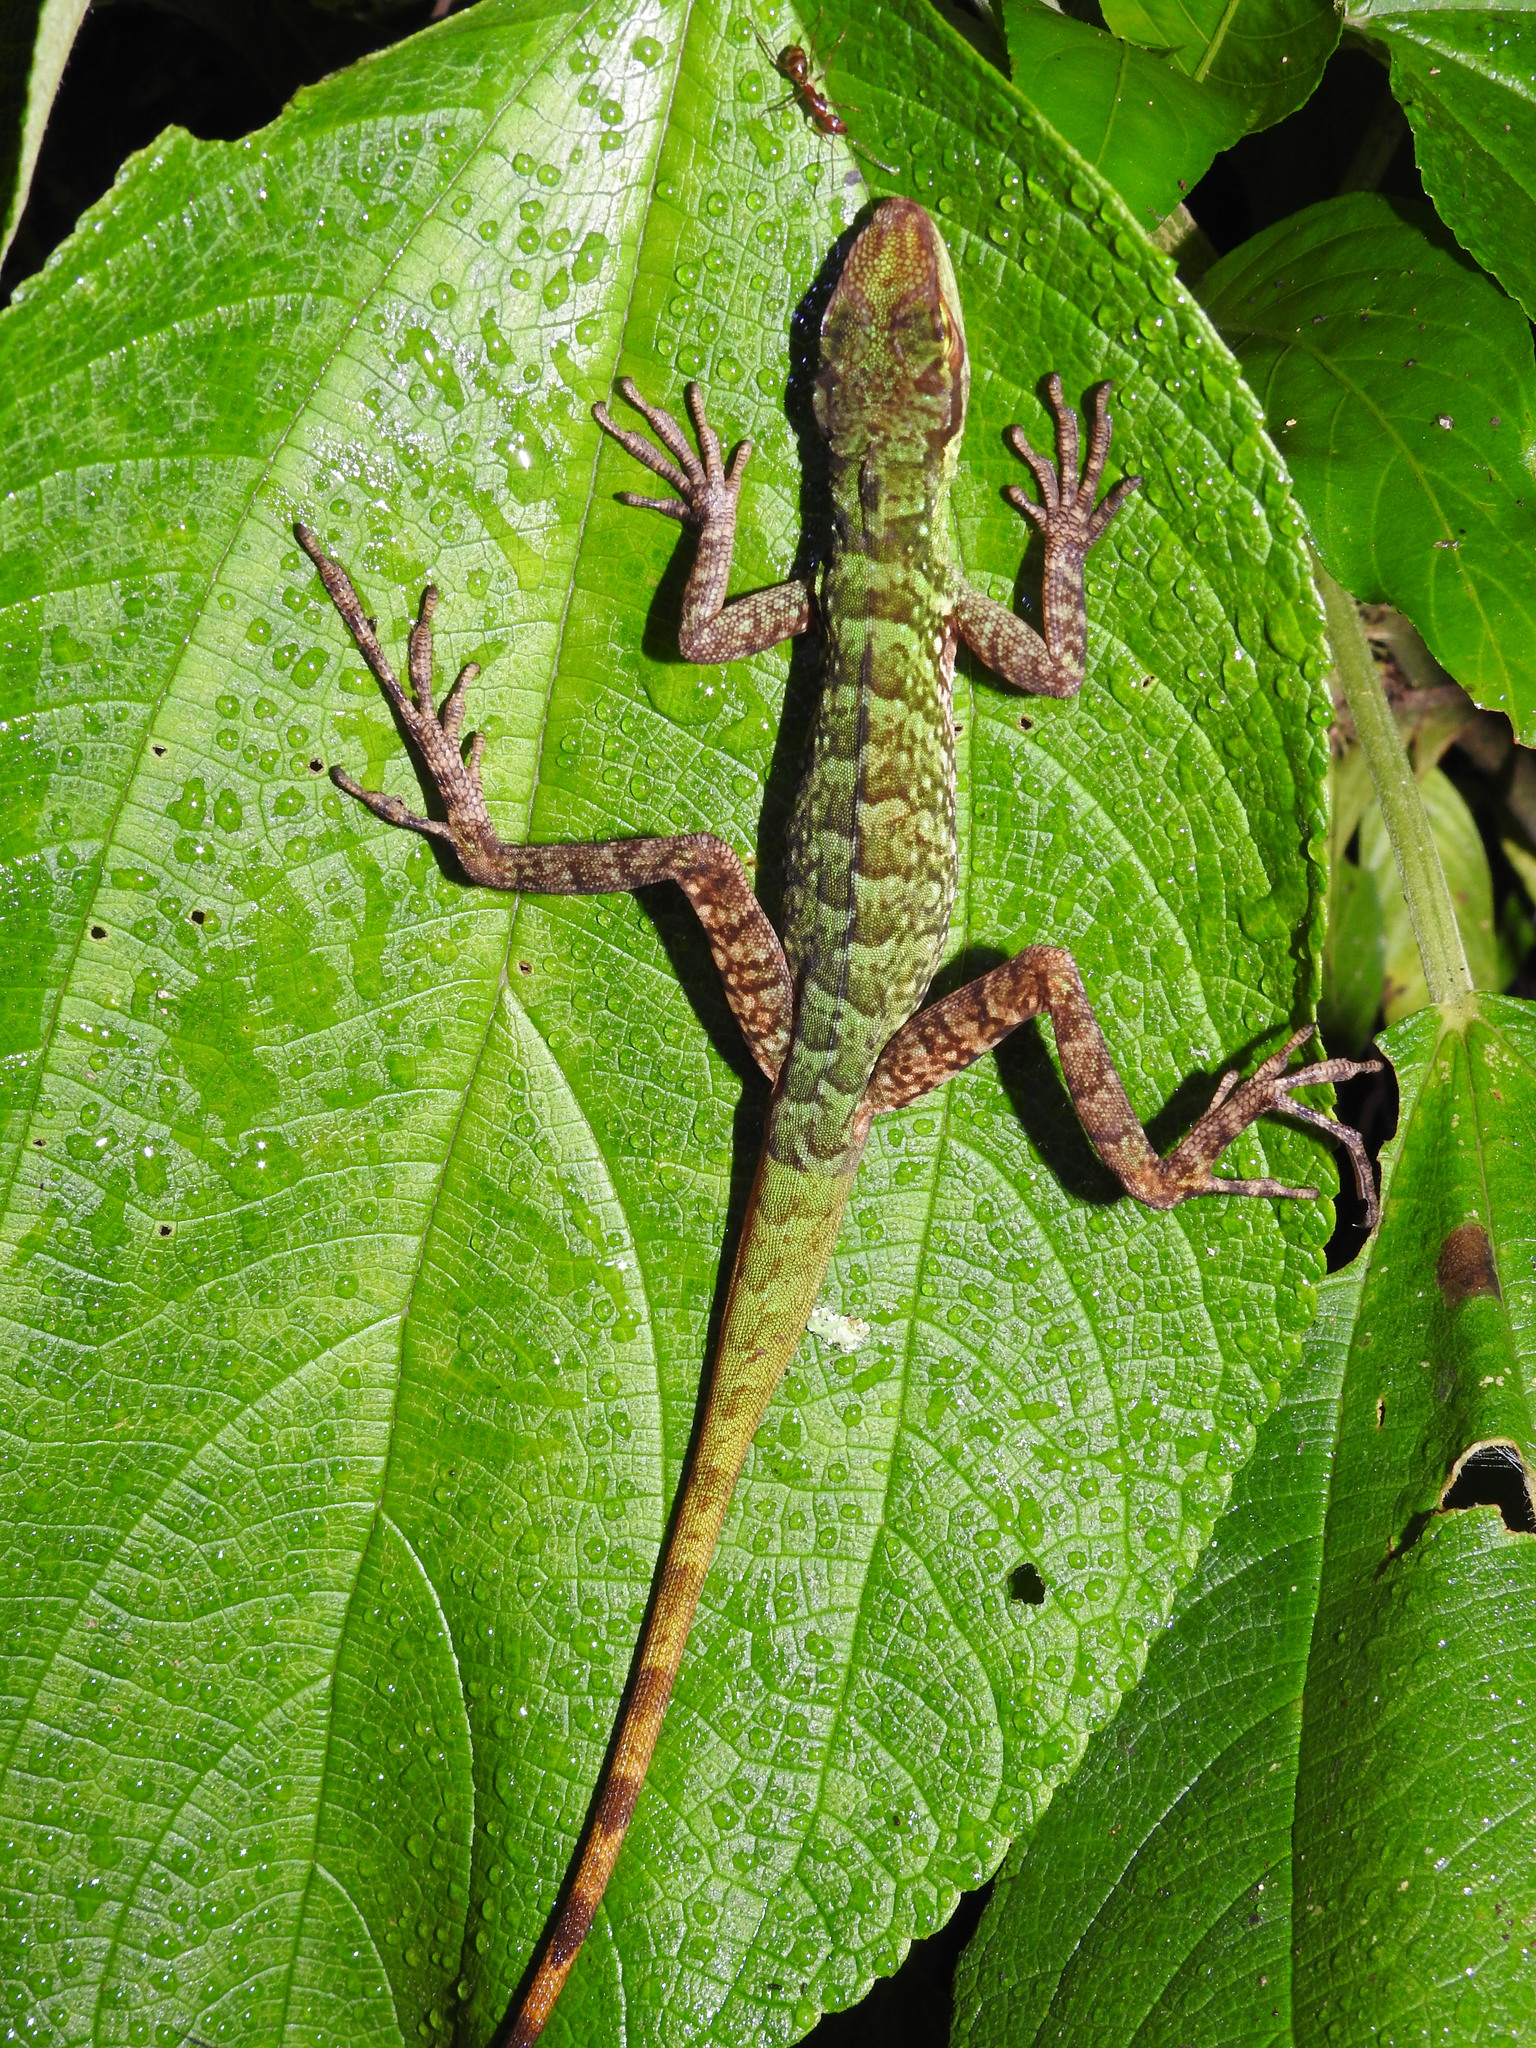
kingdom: Animalia
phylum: Chordata
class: Squamata
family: Dactyloidae
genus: Anolis
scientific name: Anolis ventrimaculatus
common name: Speckled anole
